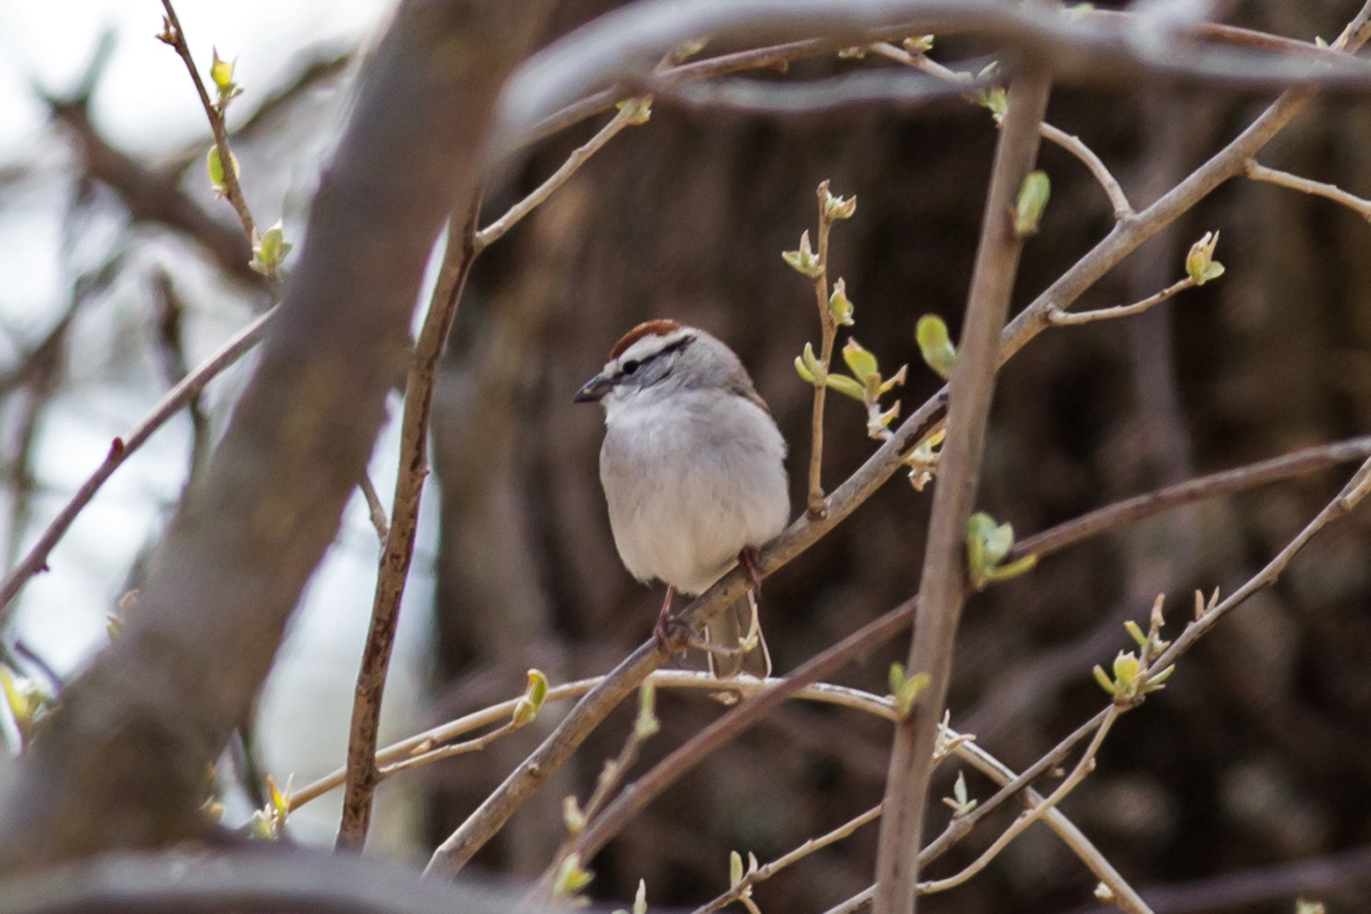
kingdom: Animalia
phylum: Chordata
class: Aves
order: Passeriformes
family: Passerellidae
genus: Spizella
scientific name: Spizella passerina
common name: Chipping sparrow
